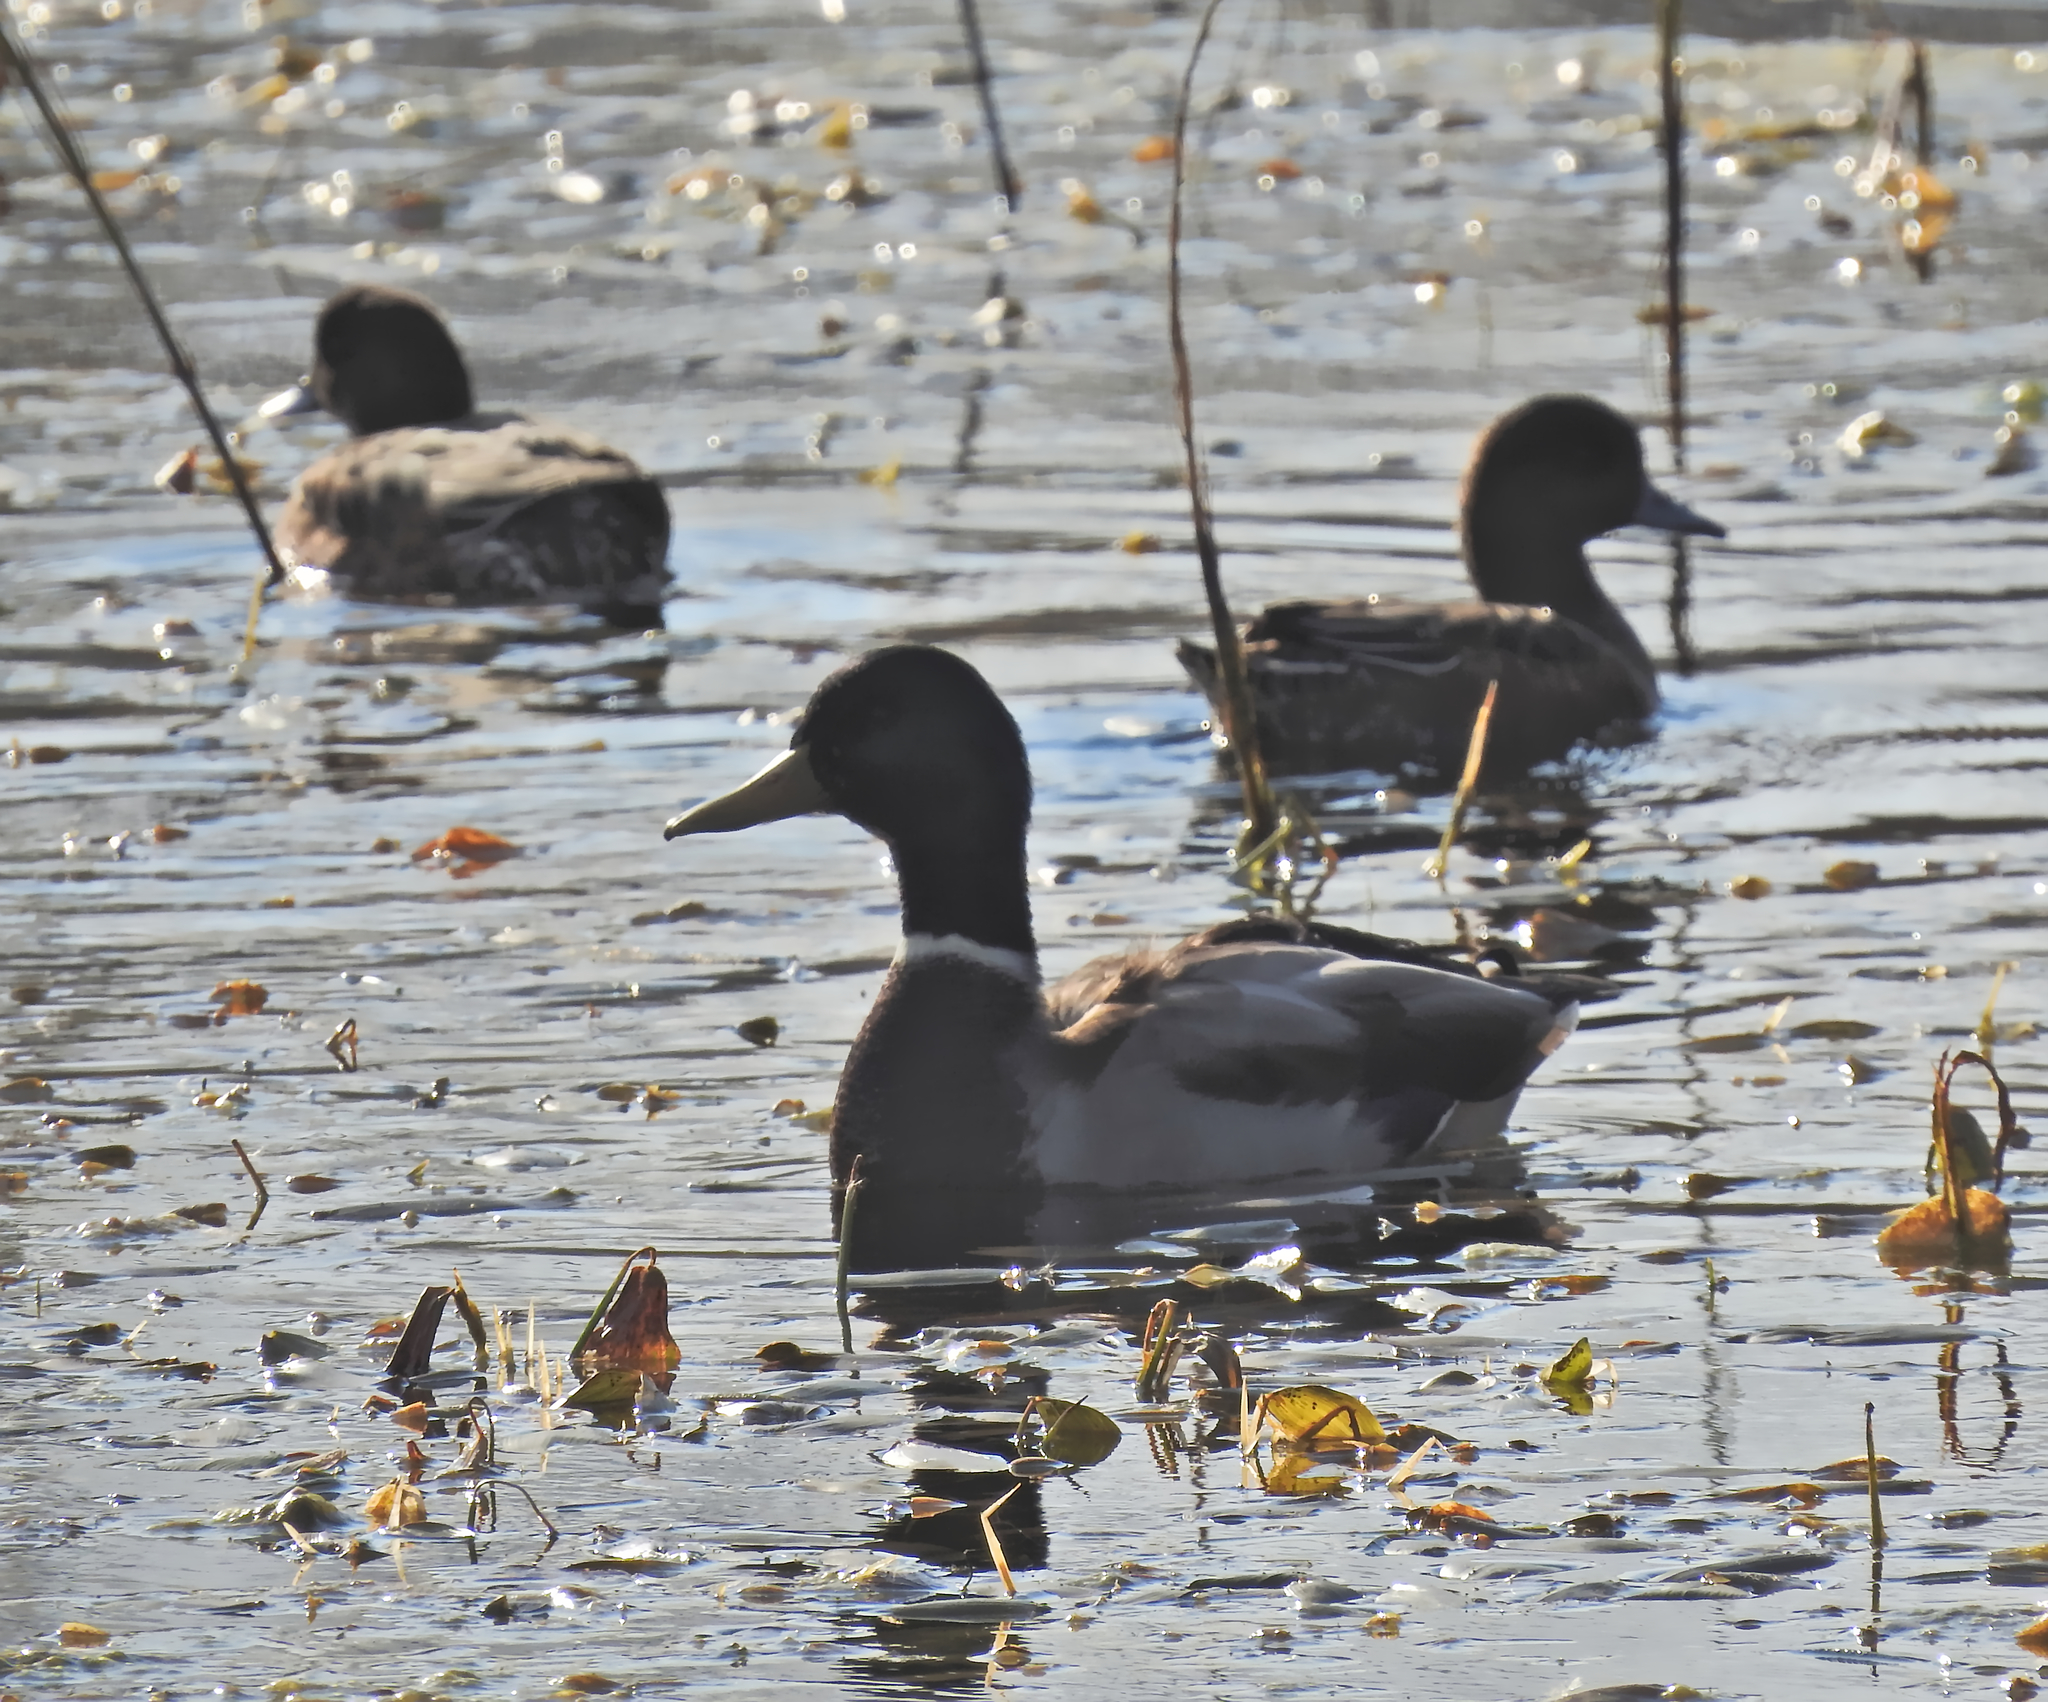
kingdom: Animalia
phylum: Chordata
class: Aves
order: Anseriformes
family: Anatidae
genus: Anas
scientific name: Anas platyrhynchos
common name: Mallard
